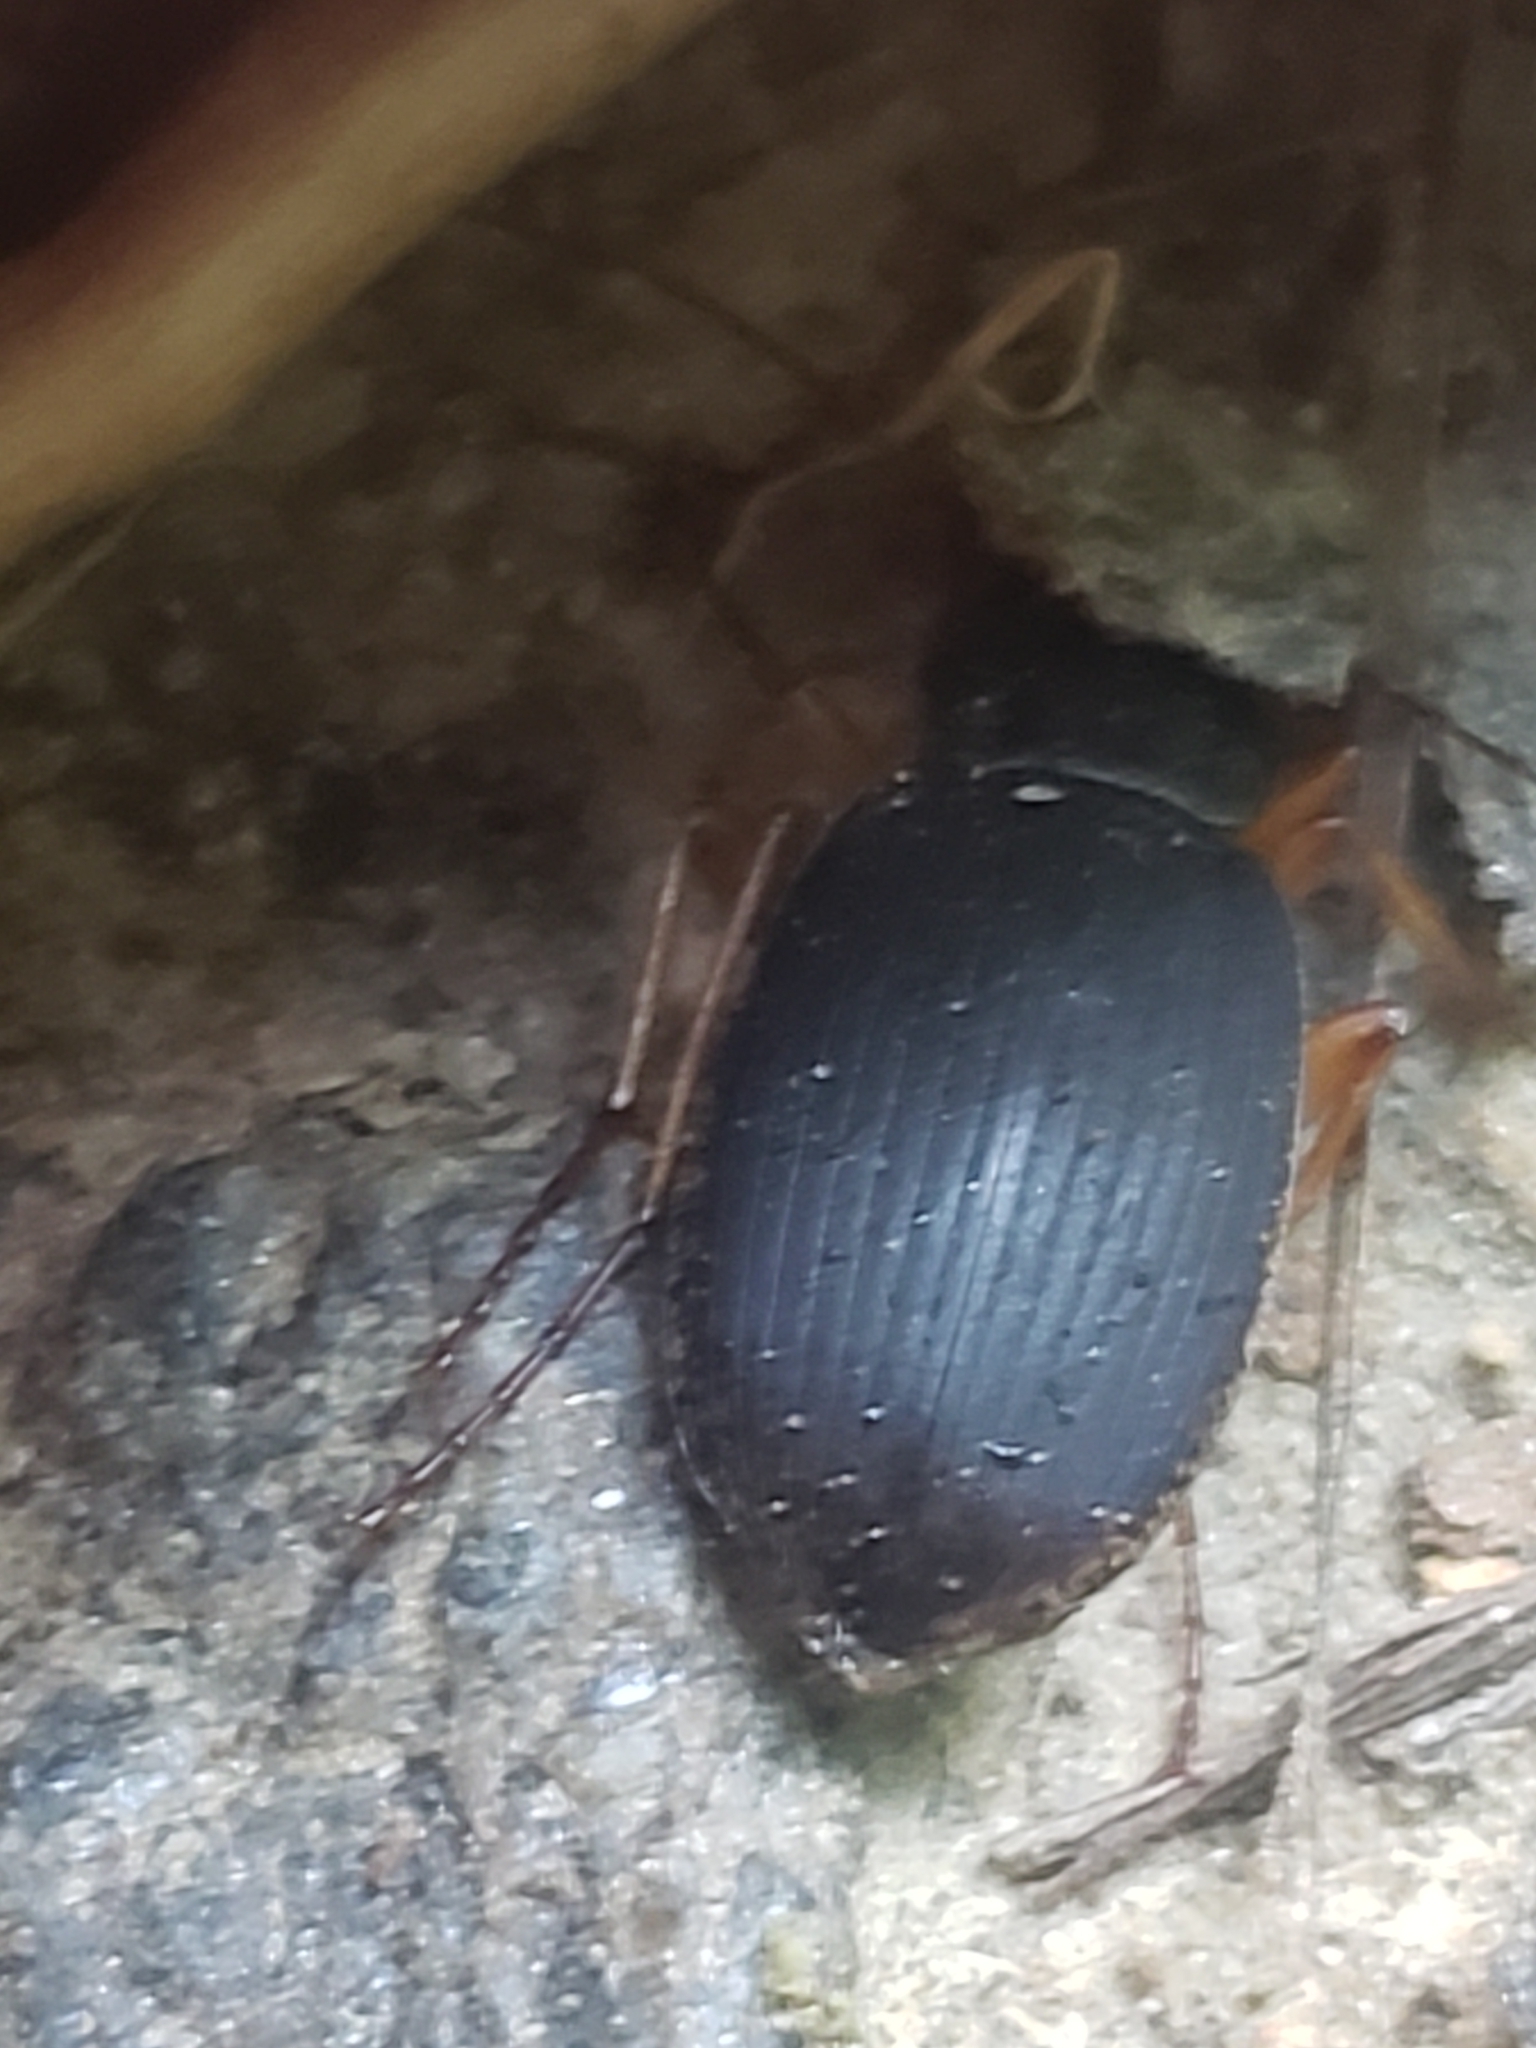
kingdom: Animalia
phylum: Arthropoda
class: Insecta
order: Coleoptera
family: Carabidae
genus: Chlaenius
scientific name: Chlaenius aestivus
